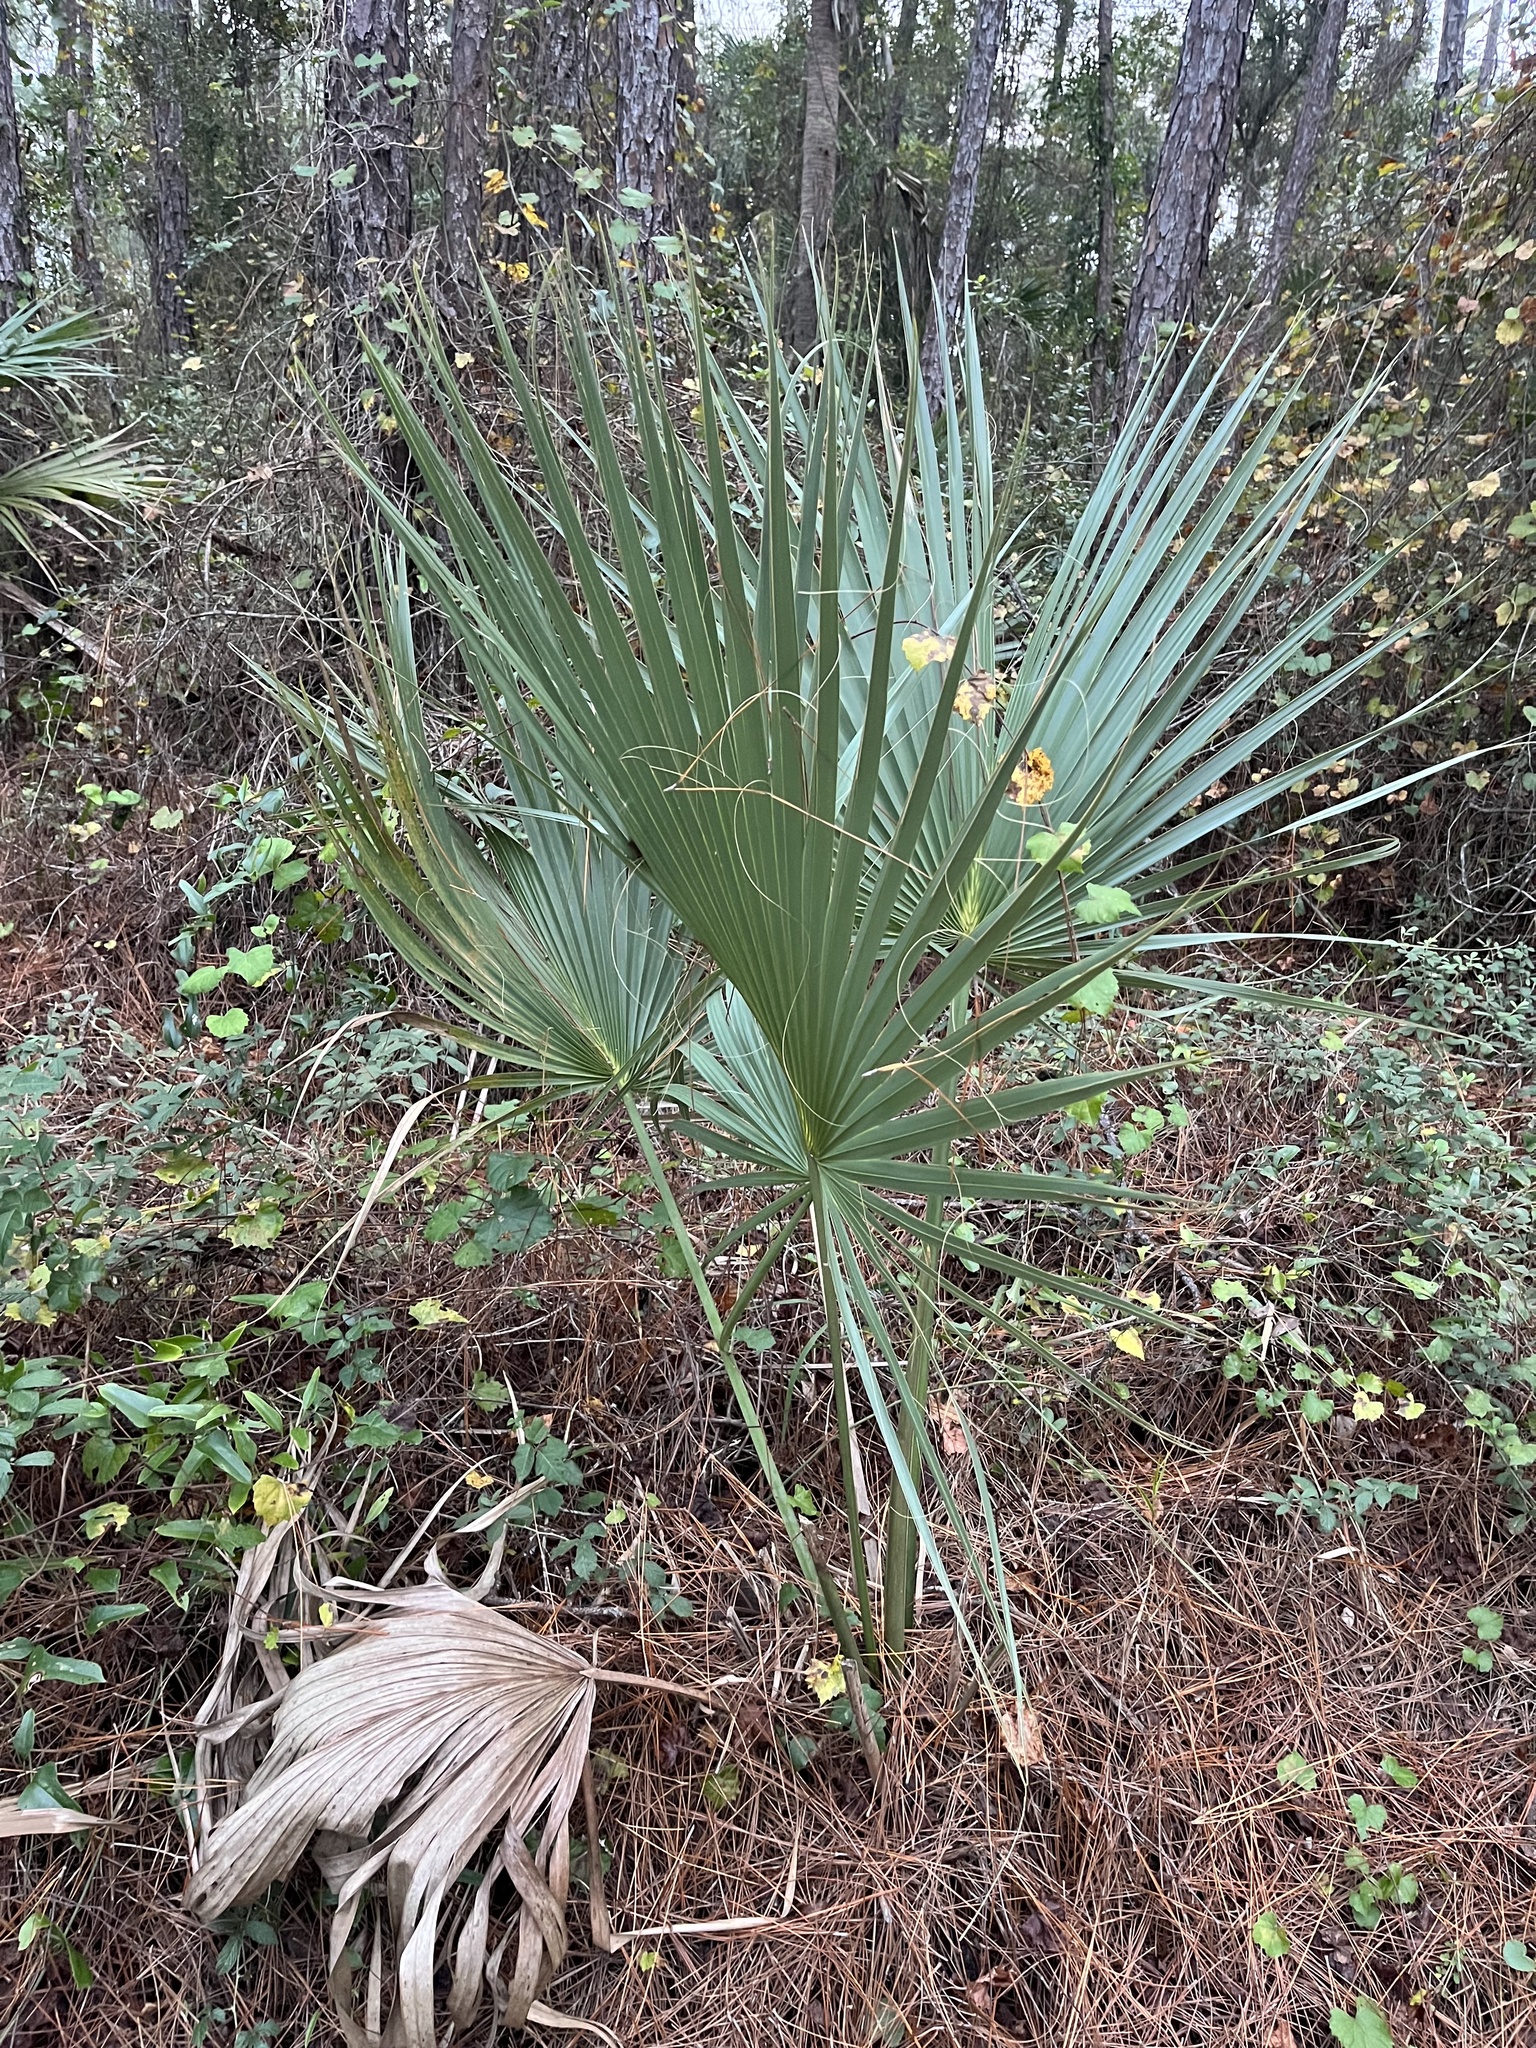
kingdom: Plantae
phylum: Tracheophyta
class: Liliopsida
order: Arecales
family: Arecaceae
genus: Sabal
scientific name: Sabal palmetto
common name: Blue palmetto
